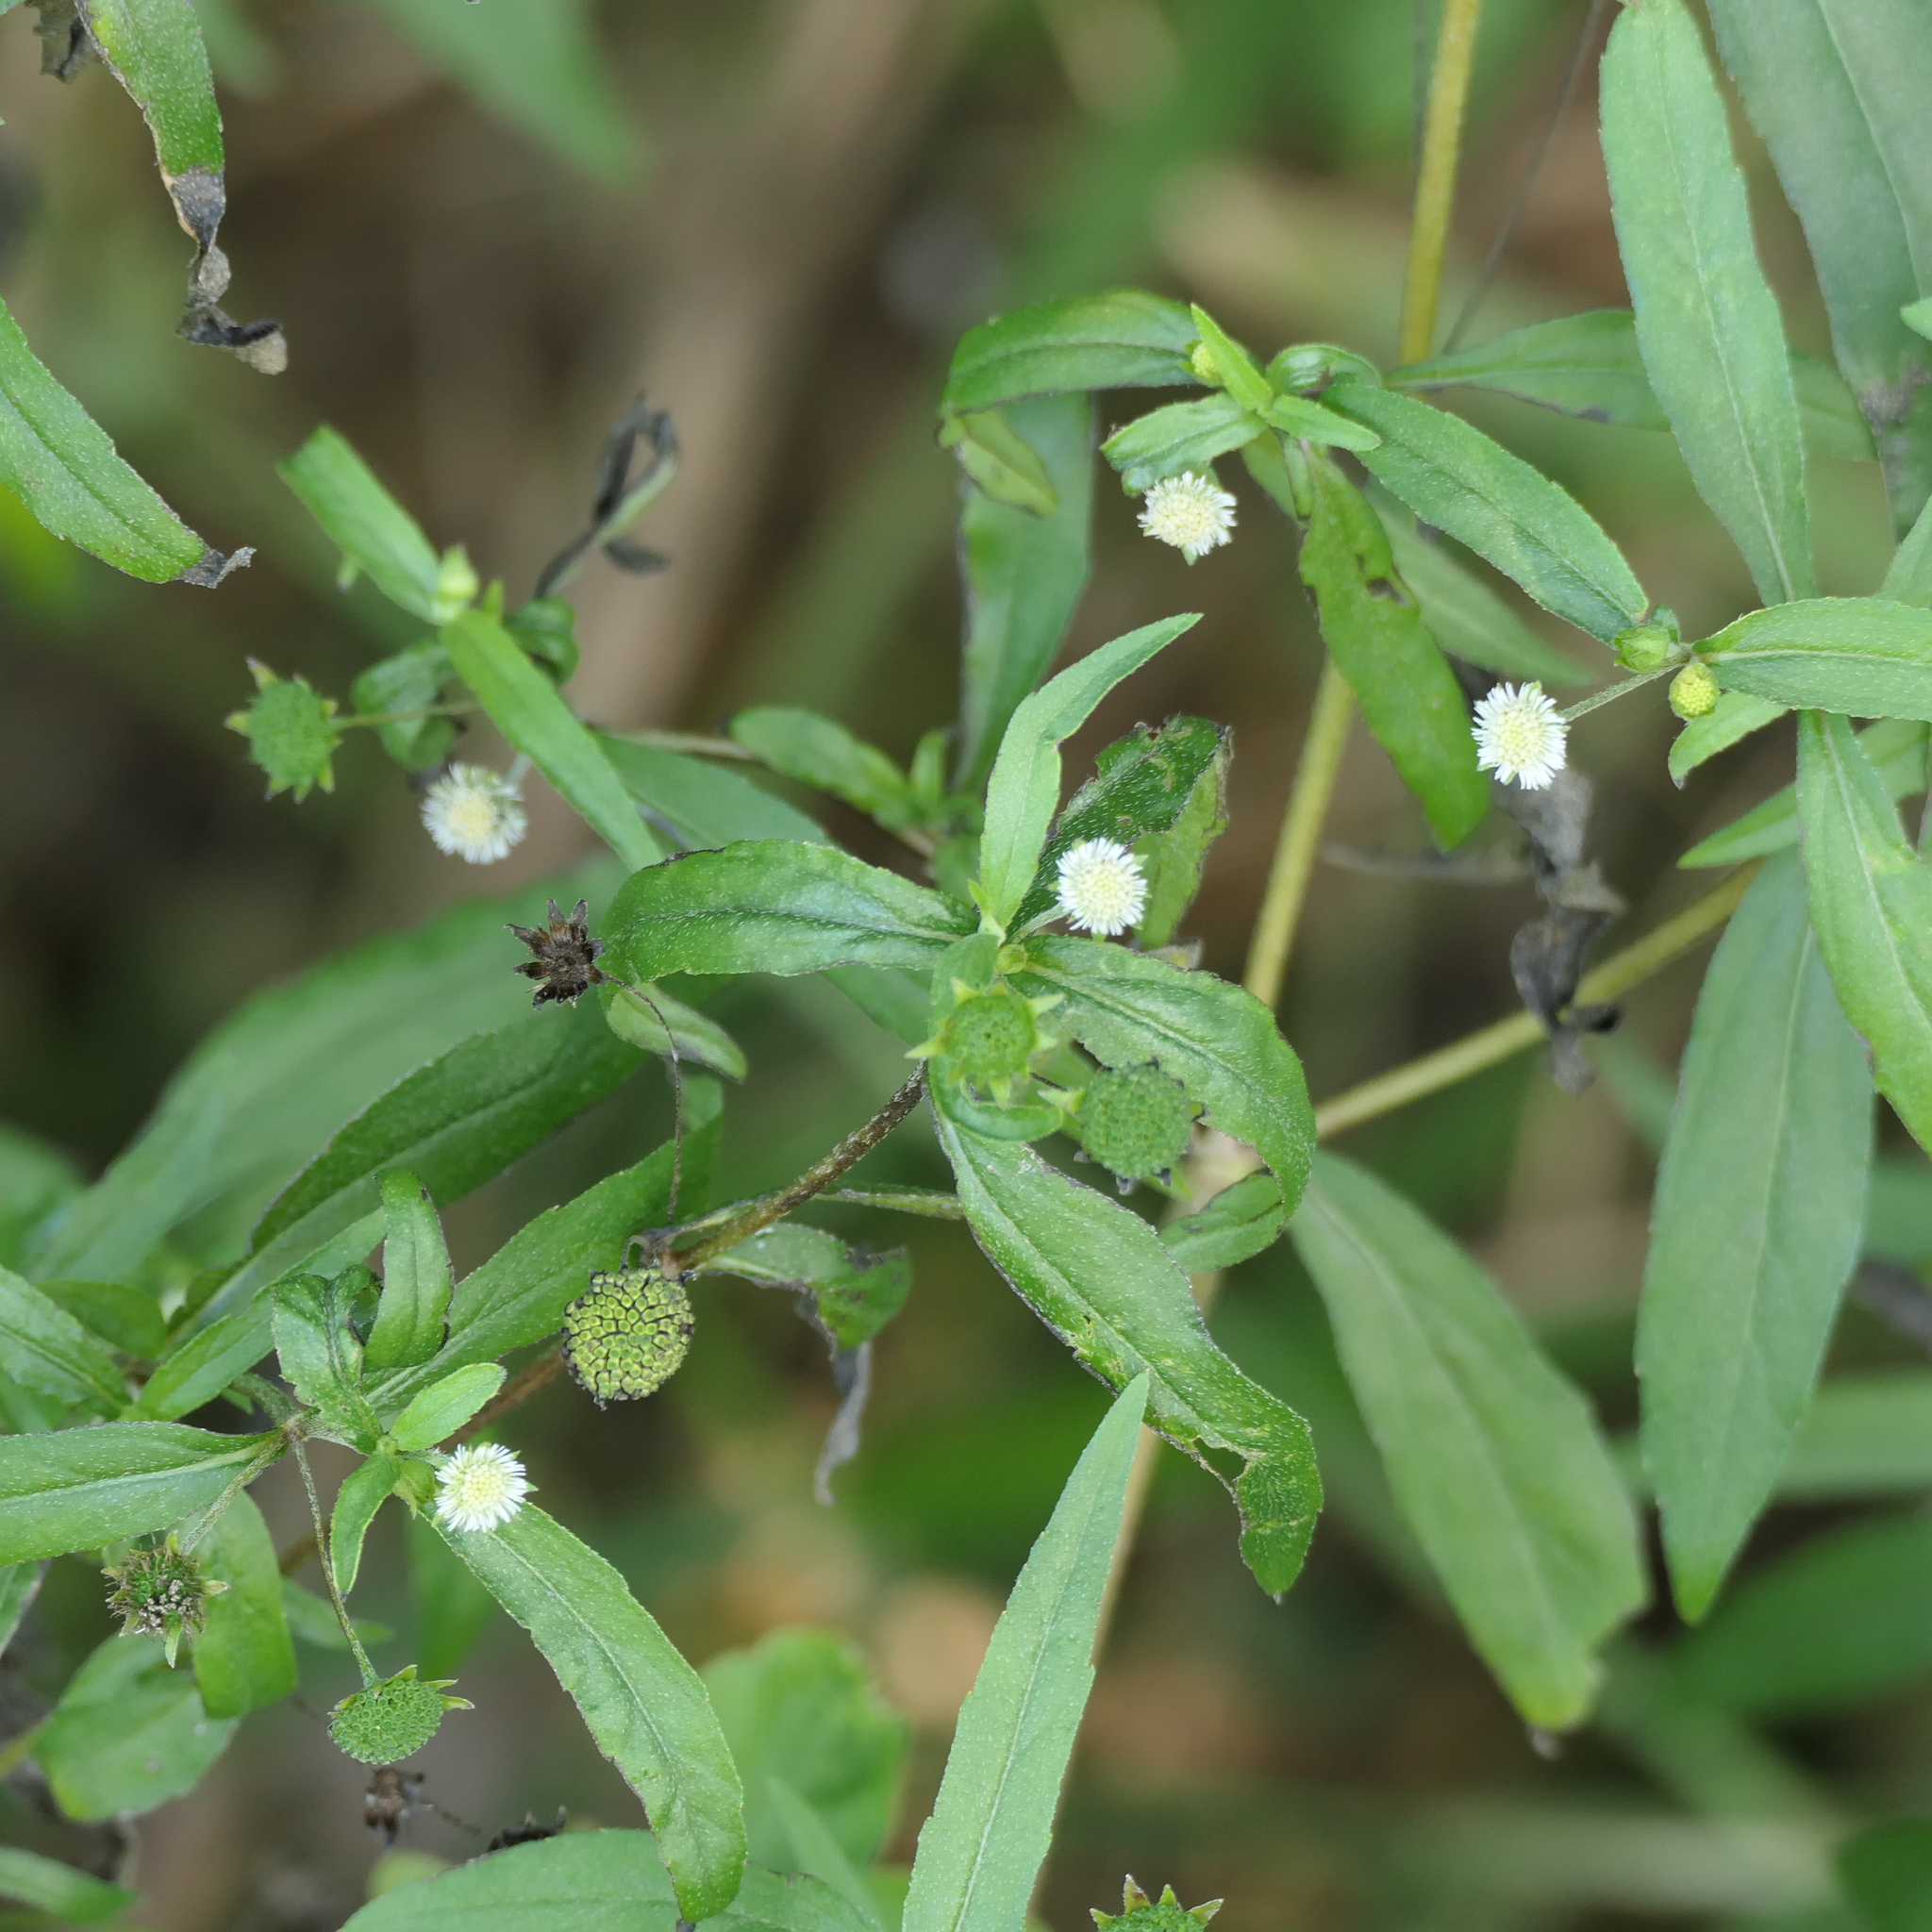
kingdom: Plantae
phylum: Tracheophyta
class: Magnoliopsida
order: Asterales
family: Asteraceae
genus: Eclipta
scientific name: Eclipta prostrata
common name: False daisy
